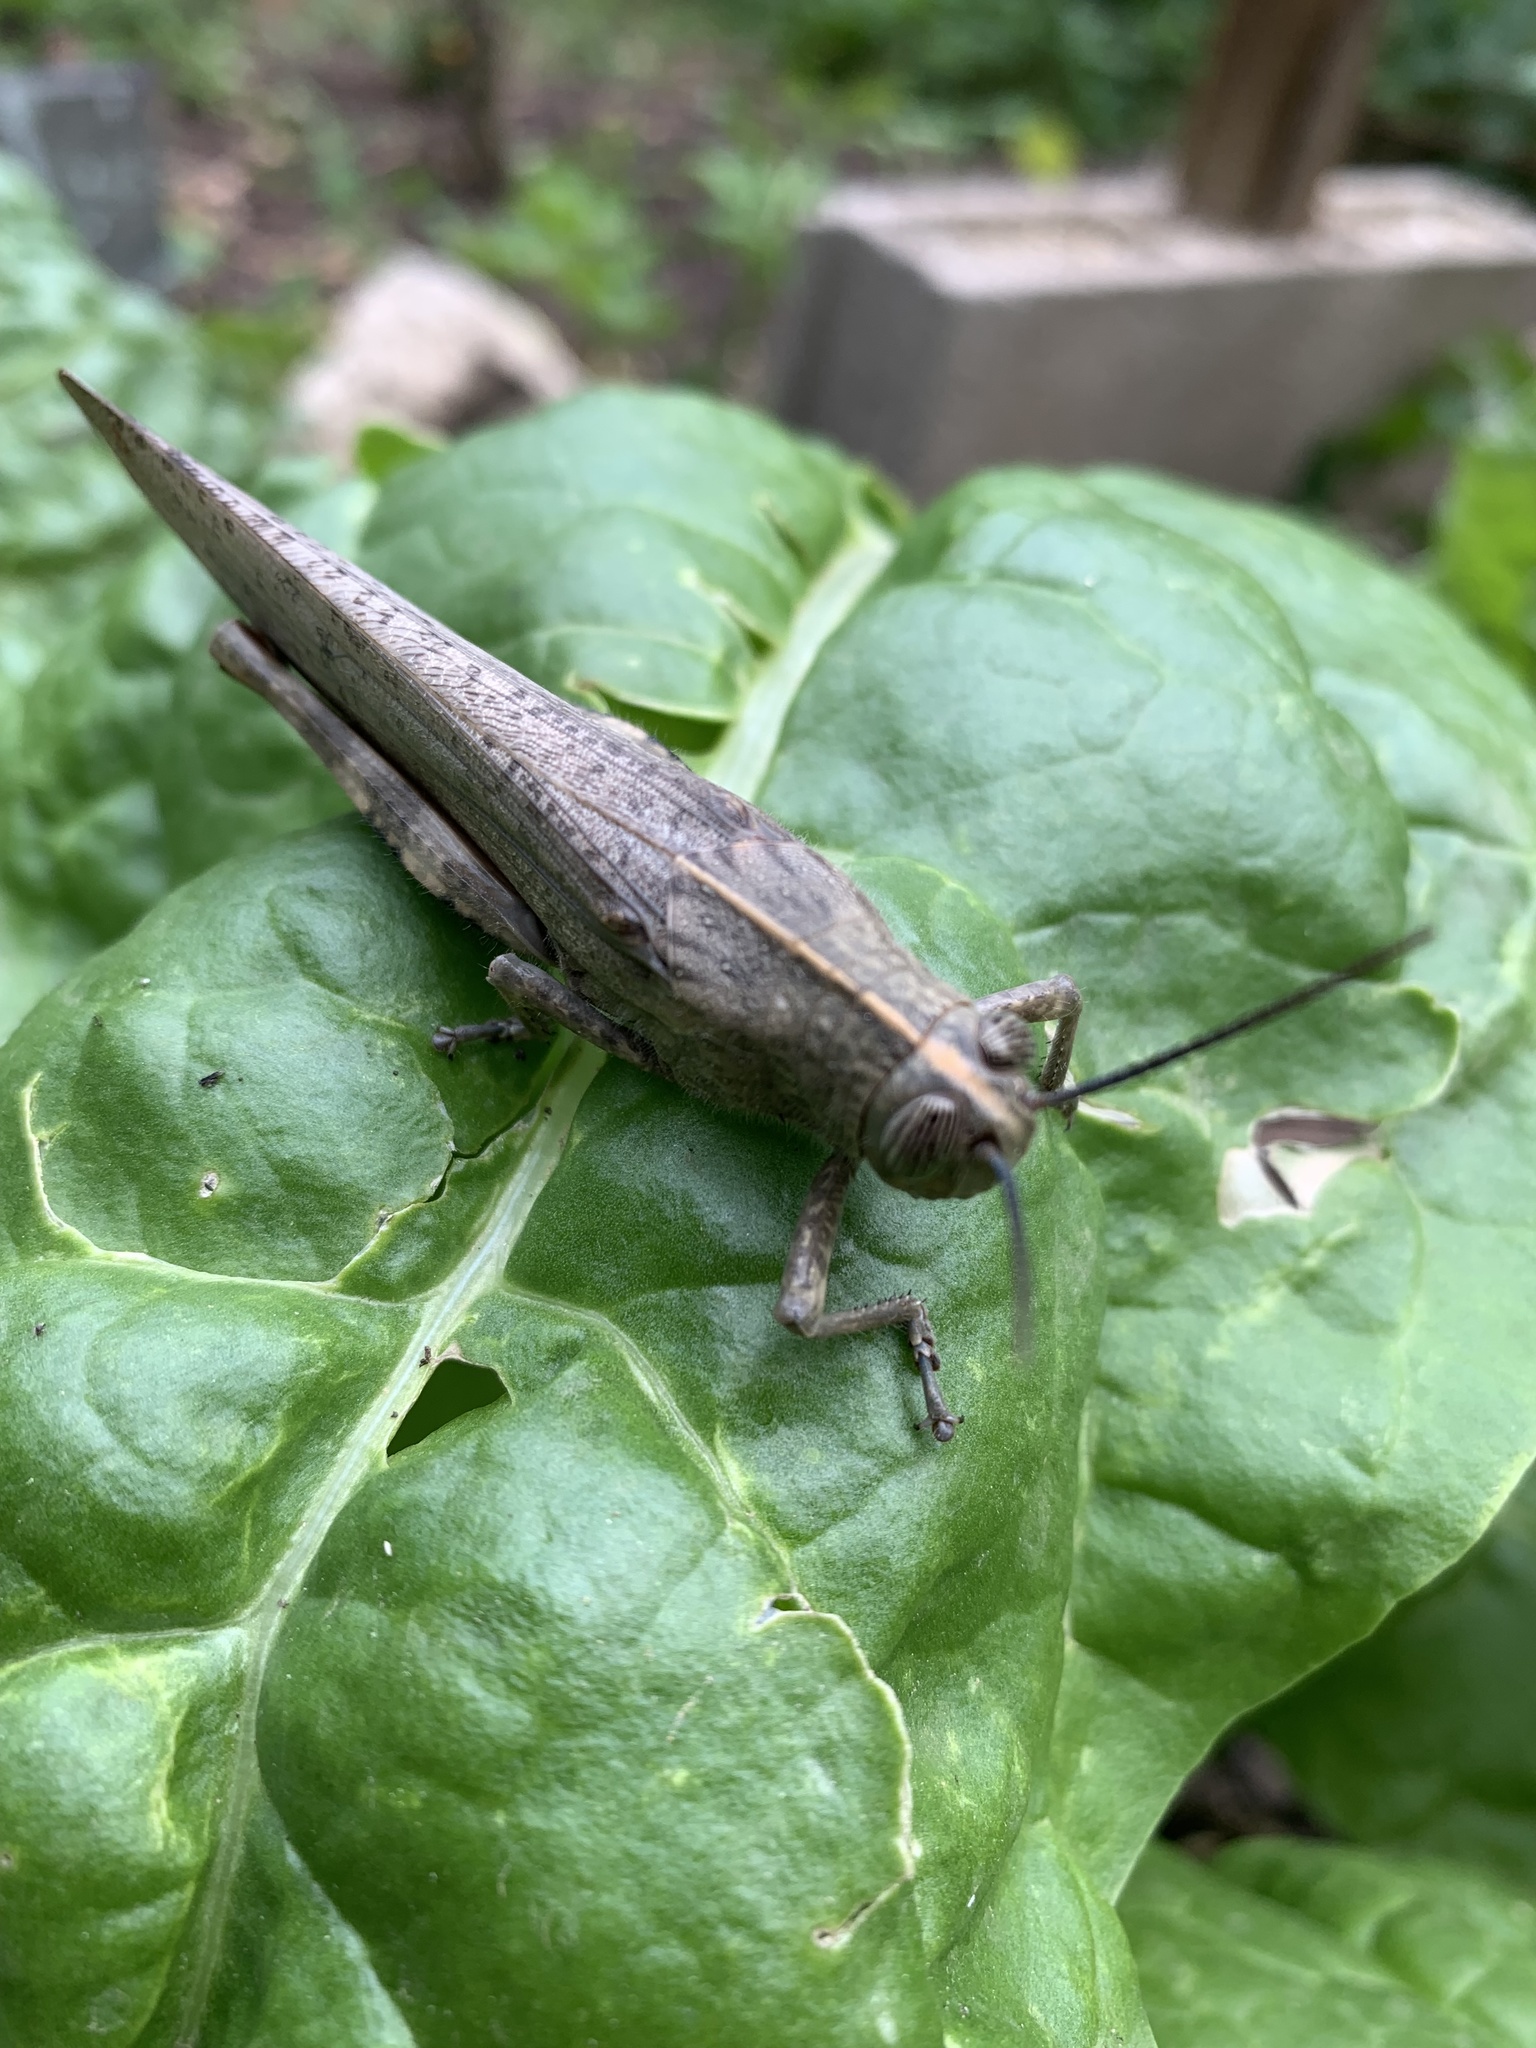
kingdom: Animalia
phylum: Arthropoda
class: Insecta
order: Orthoptera
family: Acrididae
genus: Anacridium
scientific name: Anacridium aegyptium
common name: Egyptian grasshopper
